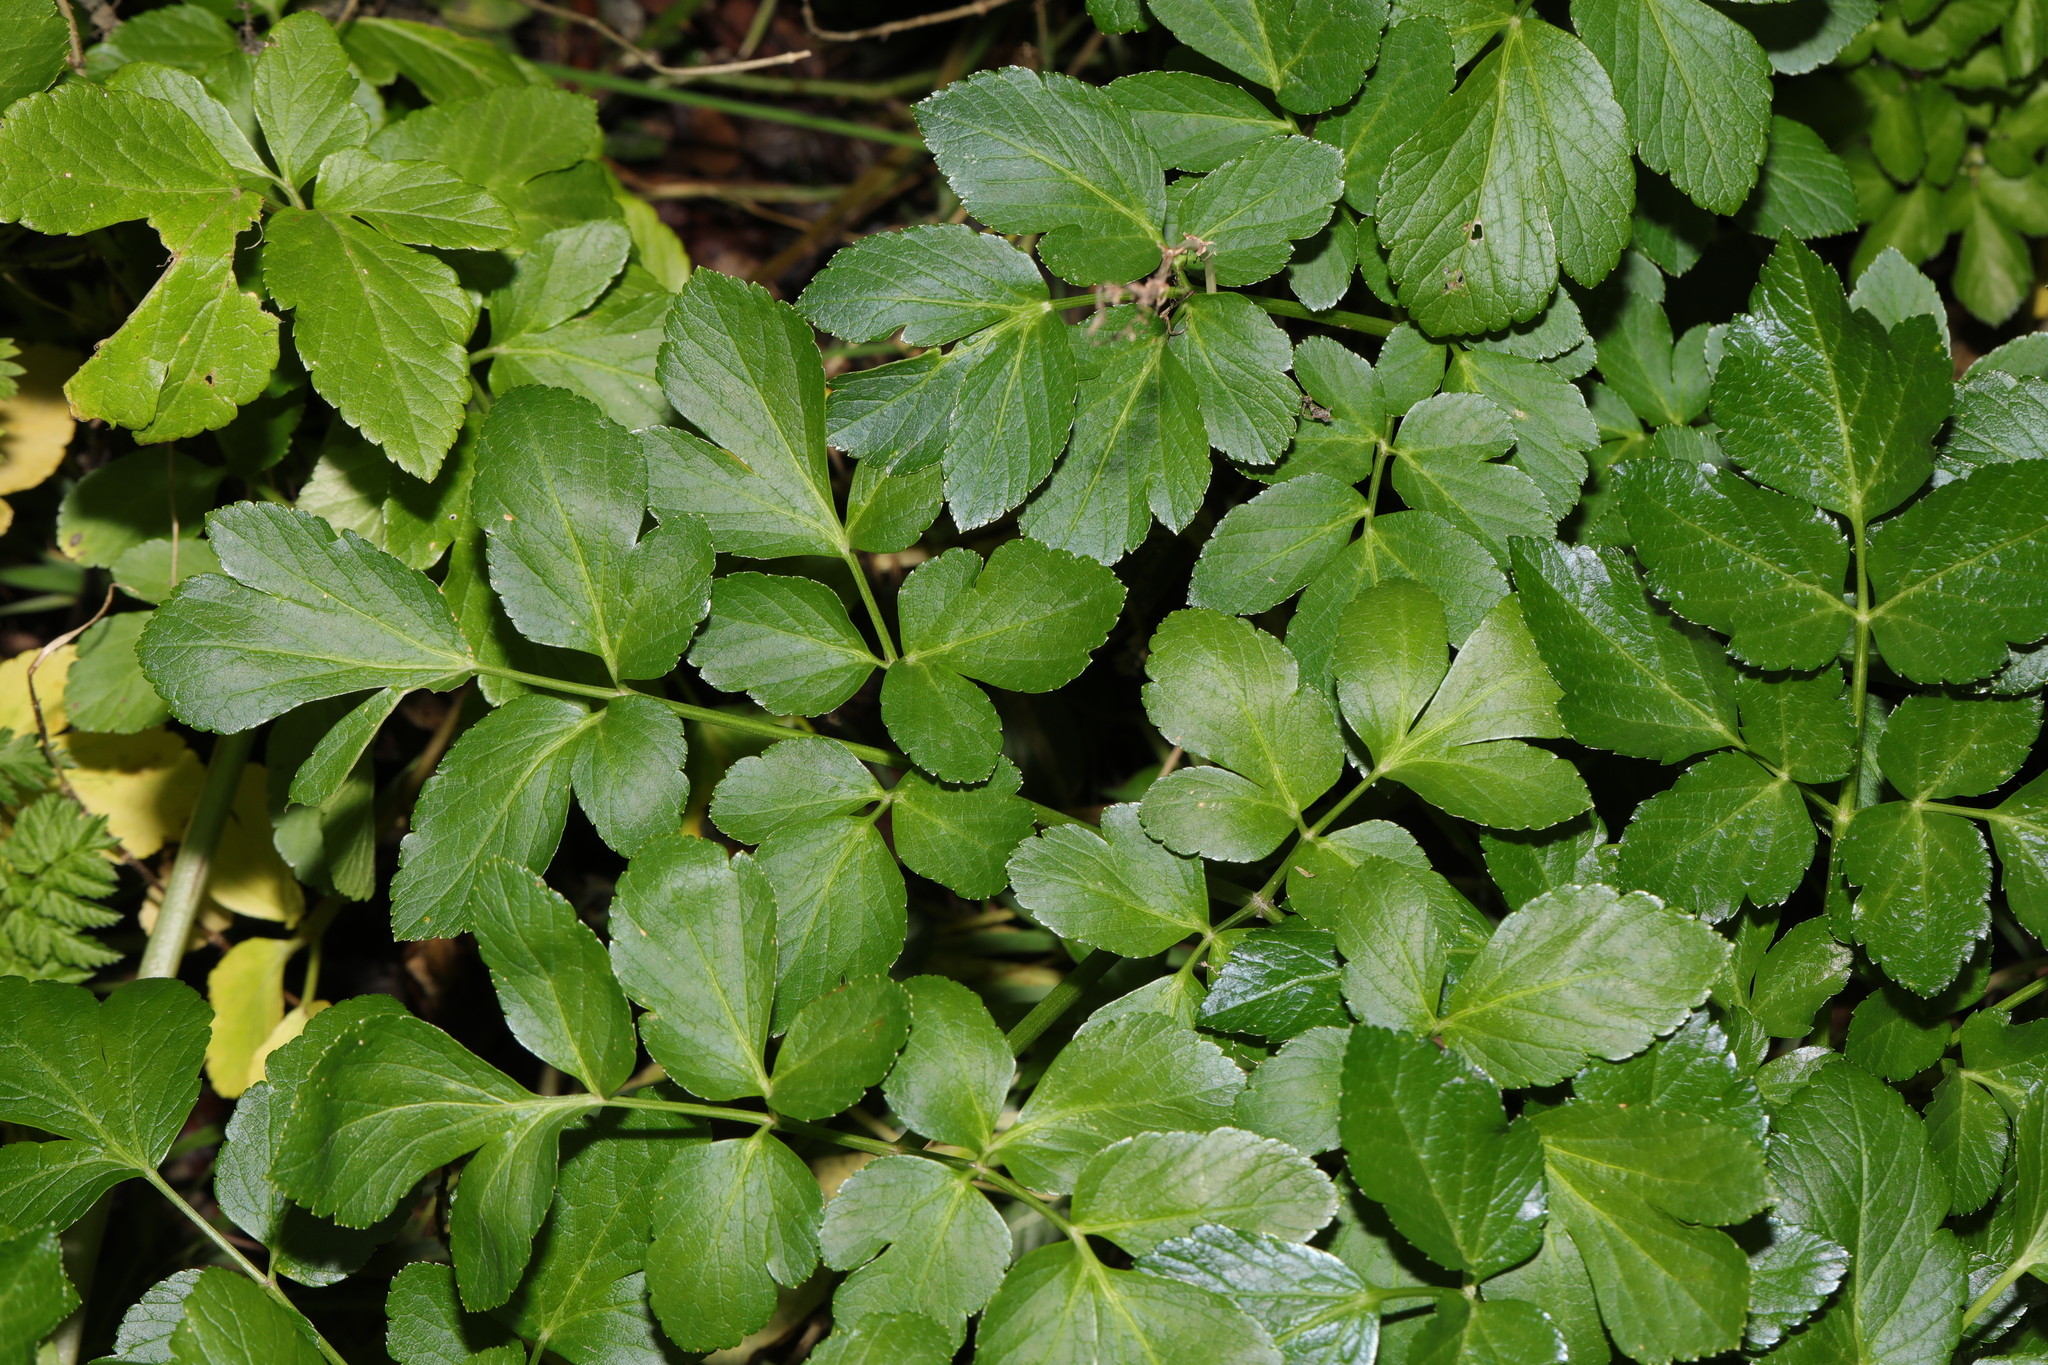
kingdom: Plantae
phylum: Tracheophyta
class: Magnoliopsida
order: Apiales
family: Apiaceae
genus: Smyrnium
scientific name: Smyrnium olusatrum
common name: Alexanders
